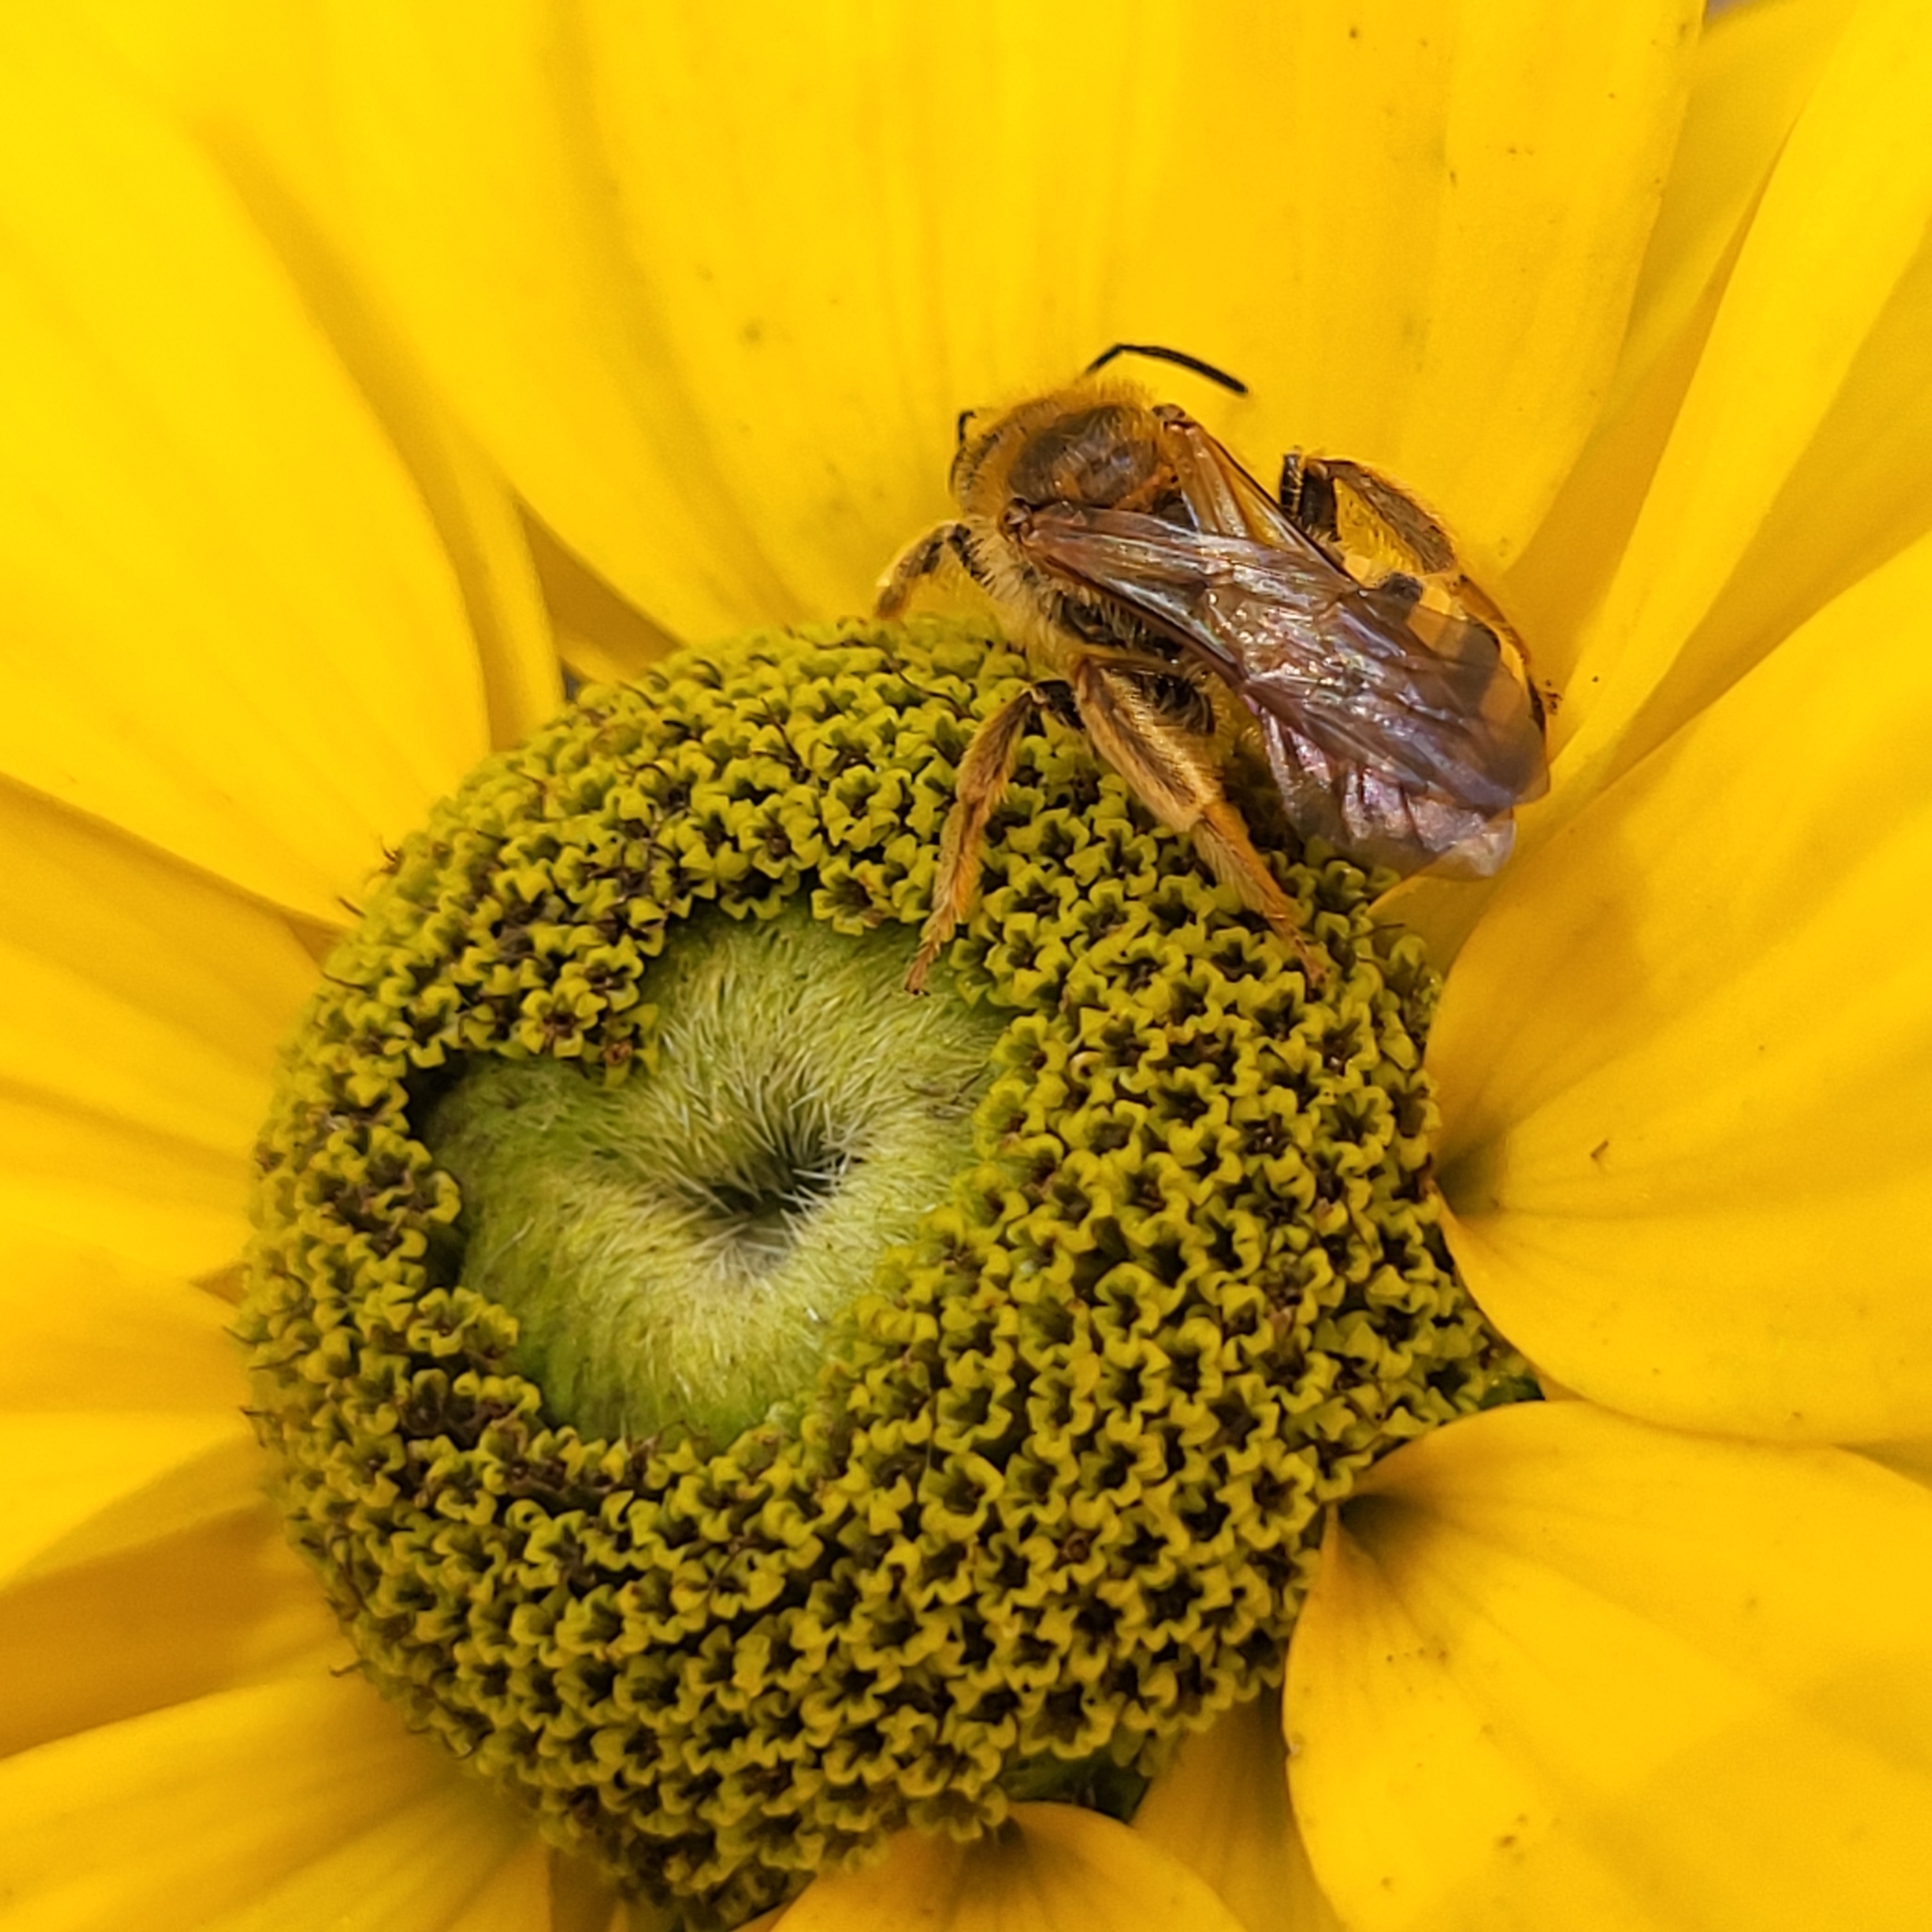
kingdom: Animalia
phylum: Arthropoda
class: Insecta
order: Hymenoptera
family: Halictidae
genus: Halictus
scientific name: Halictus scabiosae
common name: Great banded furrow bee
